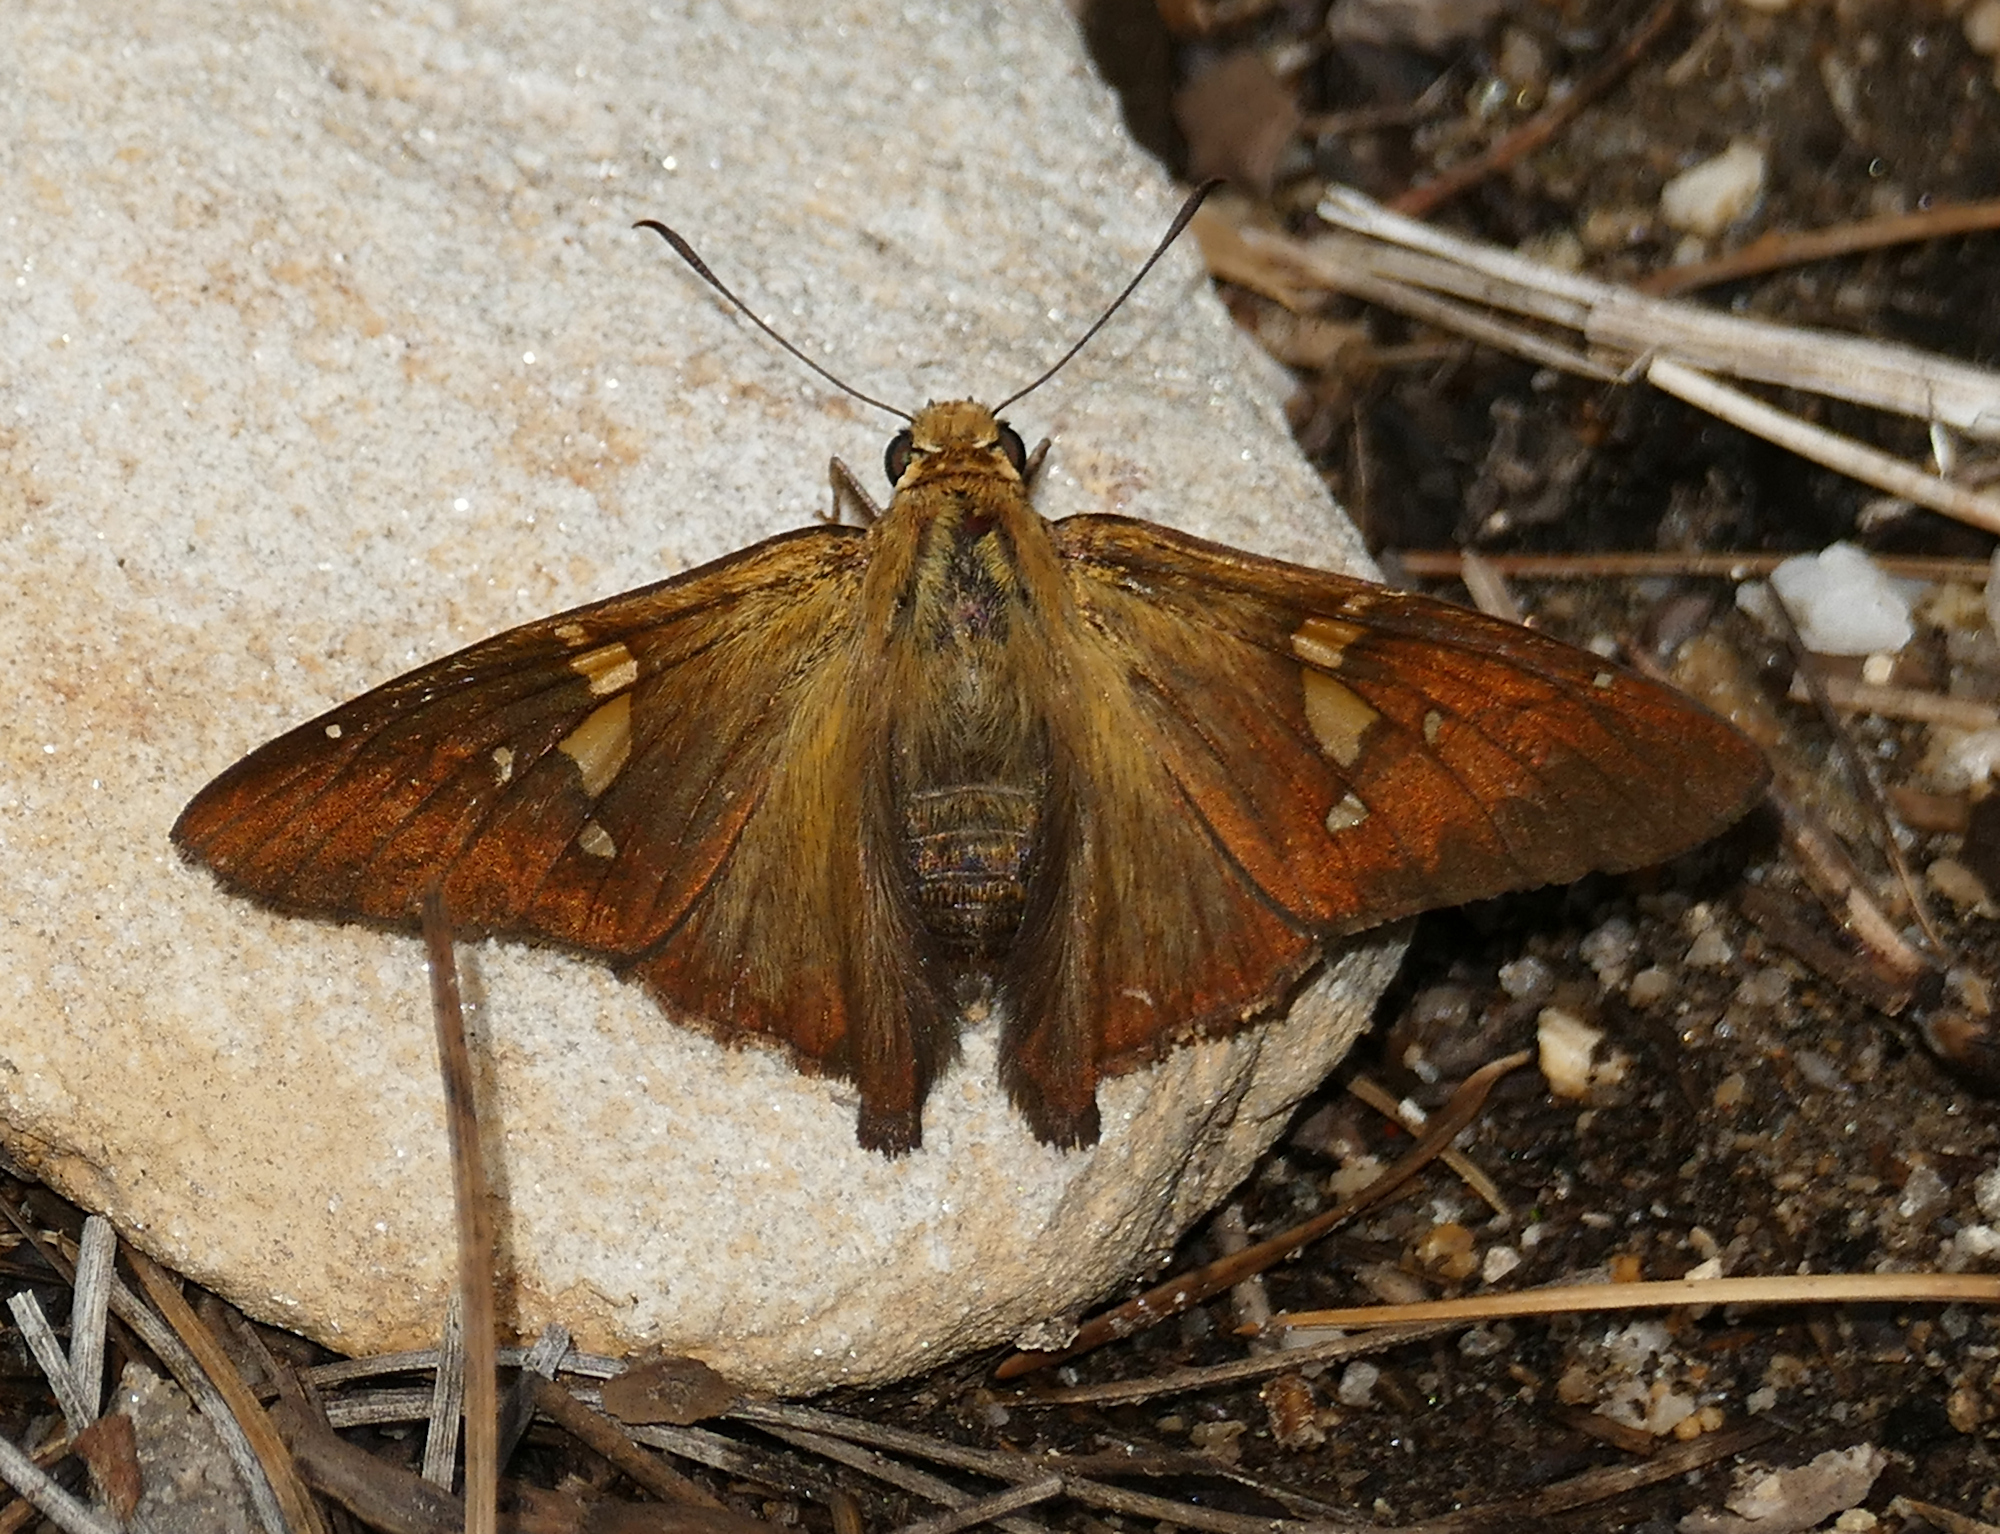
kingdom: Animalia
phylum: Arthropoda
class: Insecta
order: Lepidoptera
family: Hesperiidae
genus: Epargyreus
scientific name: Epargyreus clarus
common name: Silver-spotted skipper
